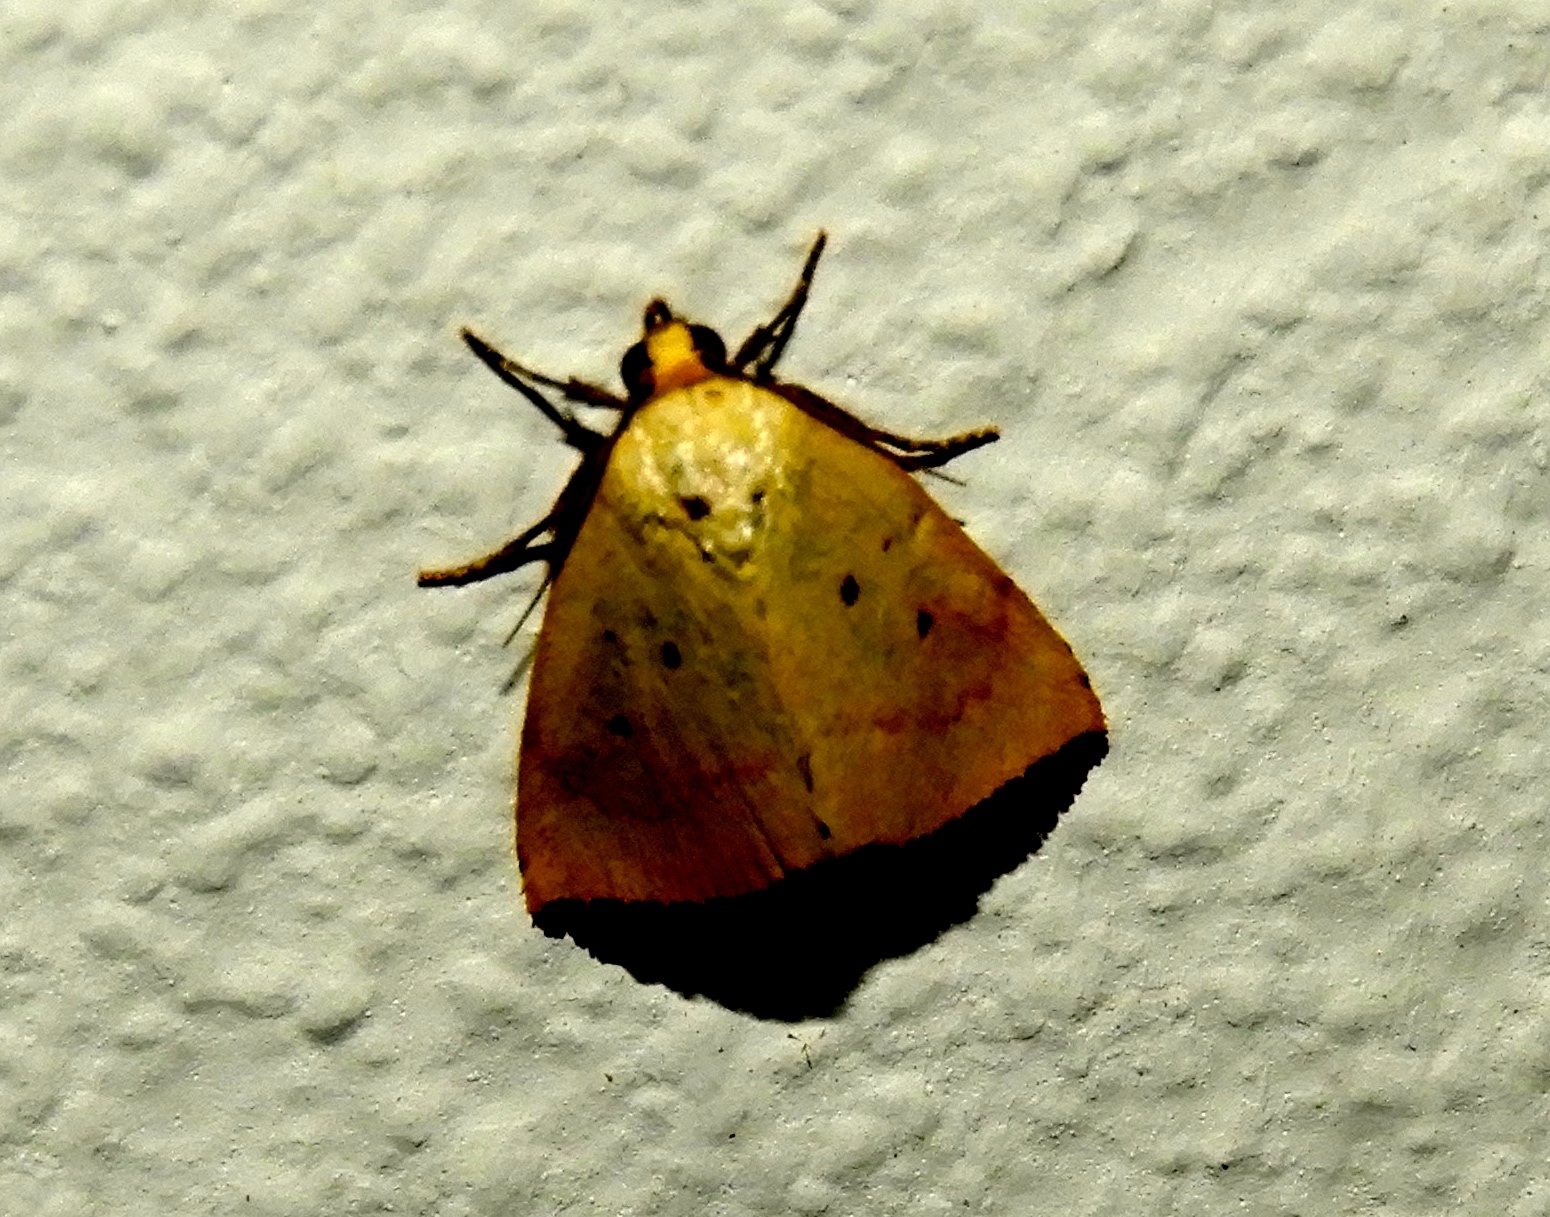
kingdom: Animalia
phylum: Arthropoda
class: Insecta
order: Lepidoptera
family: Noctuidae
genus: Marimatha
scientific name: Marimatha nigrofimbria
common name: Black-bordered lemon moth
